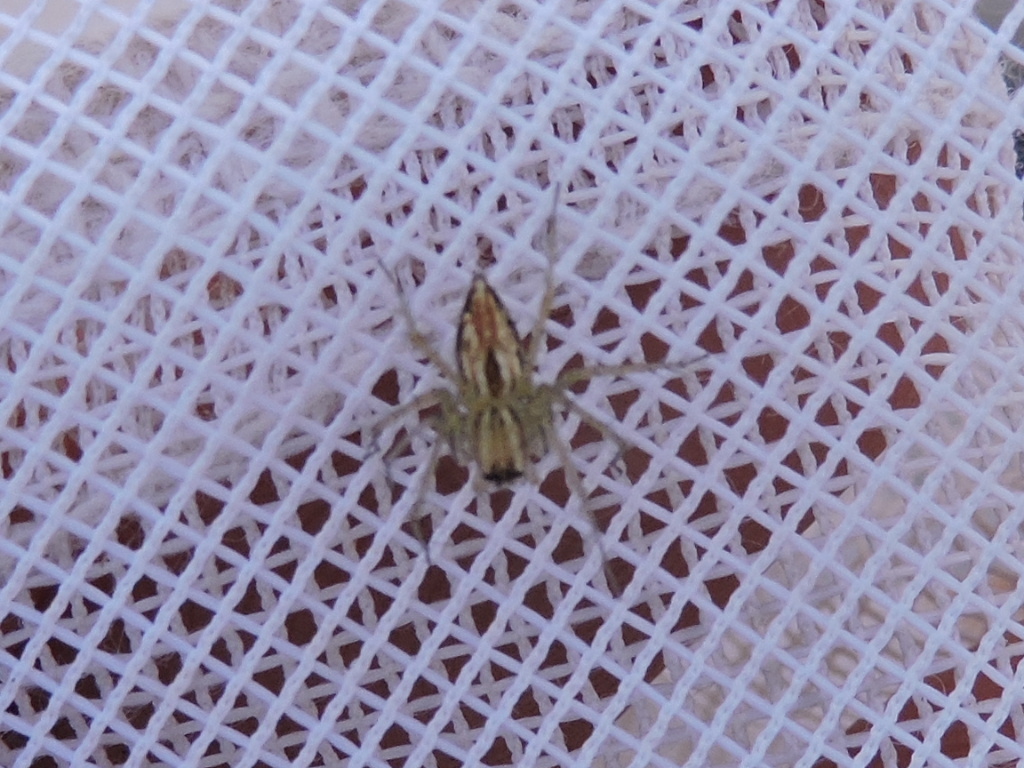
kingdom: Animalia
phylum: Arthropoda
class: Arachnida
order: Araneae
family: Oxyopidae
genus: Oxyopes
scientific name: Oxyopes salticus
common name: Lynx spiders
